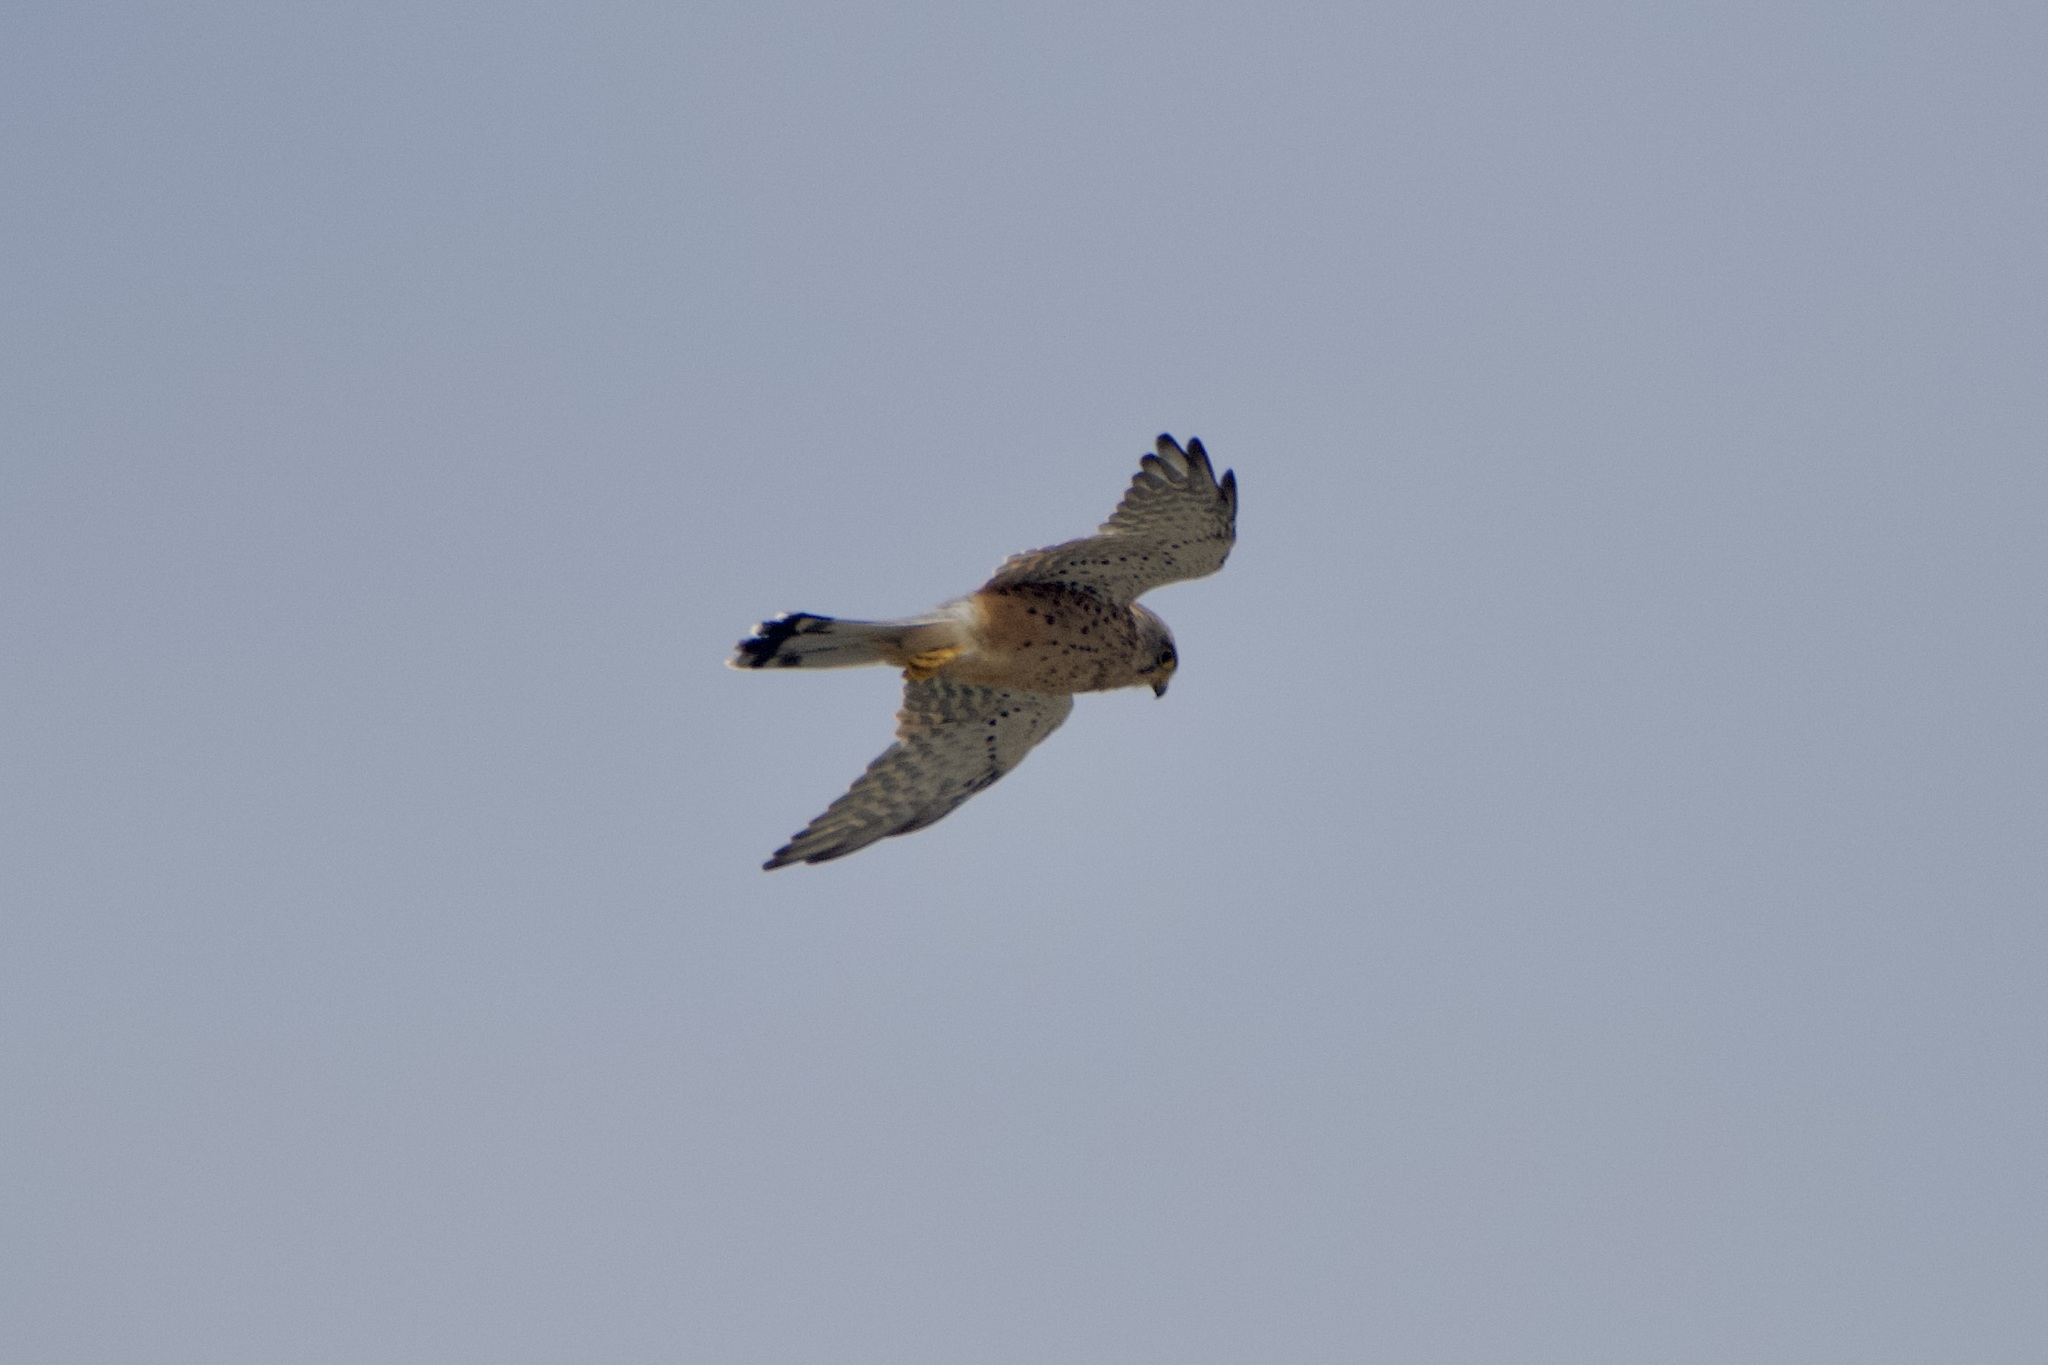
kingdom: Animalia
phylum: Chordata
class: Aves
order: Falconiformes
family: Falconidae
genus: Falco
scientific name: Falco tinnunculus
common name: Common kestrel
